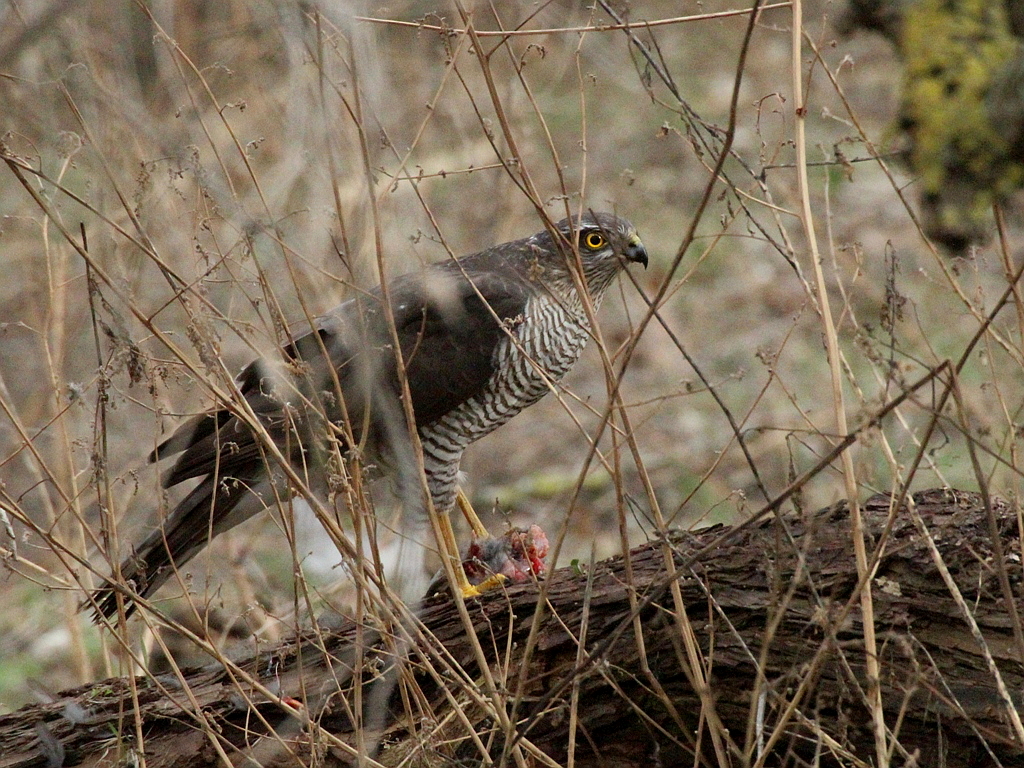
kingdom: Animalia
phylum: Chordata
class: Aves
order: Accipitriformes
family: Accipitridae
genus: Accipiter
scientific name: Accipiter nisus
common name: Eurasian sparrowhawk
